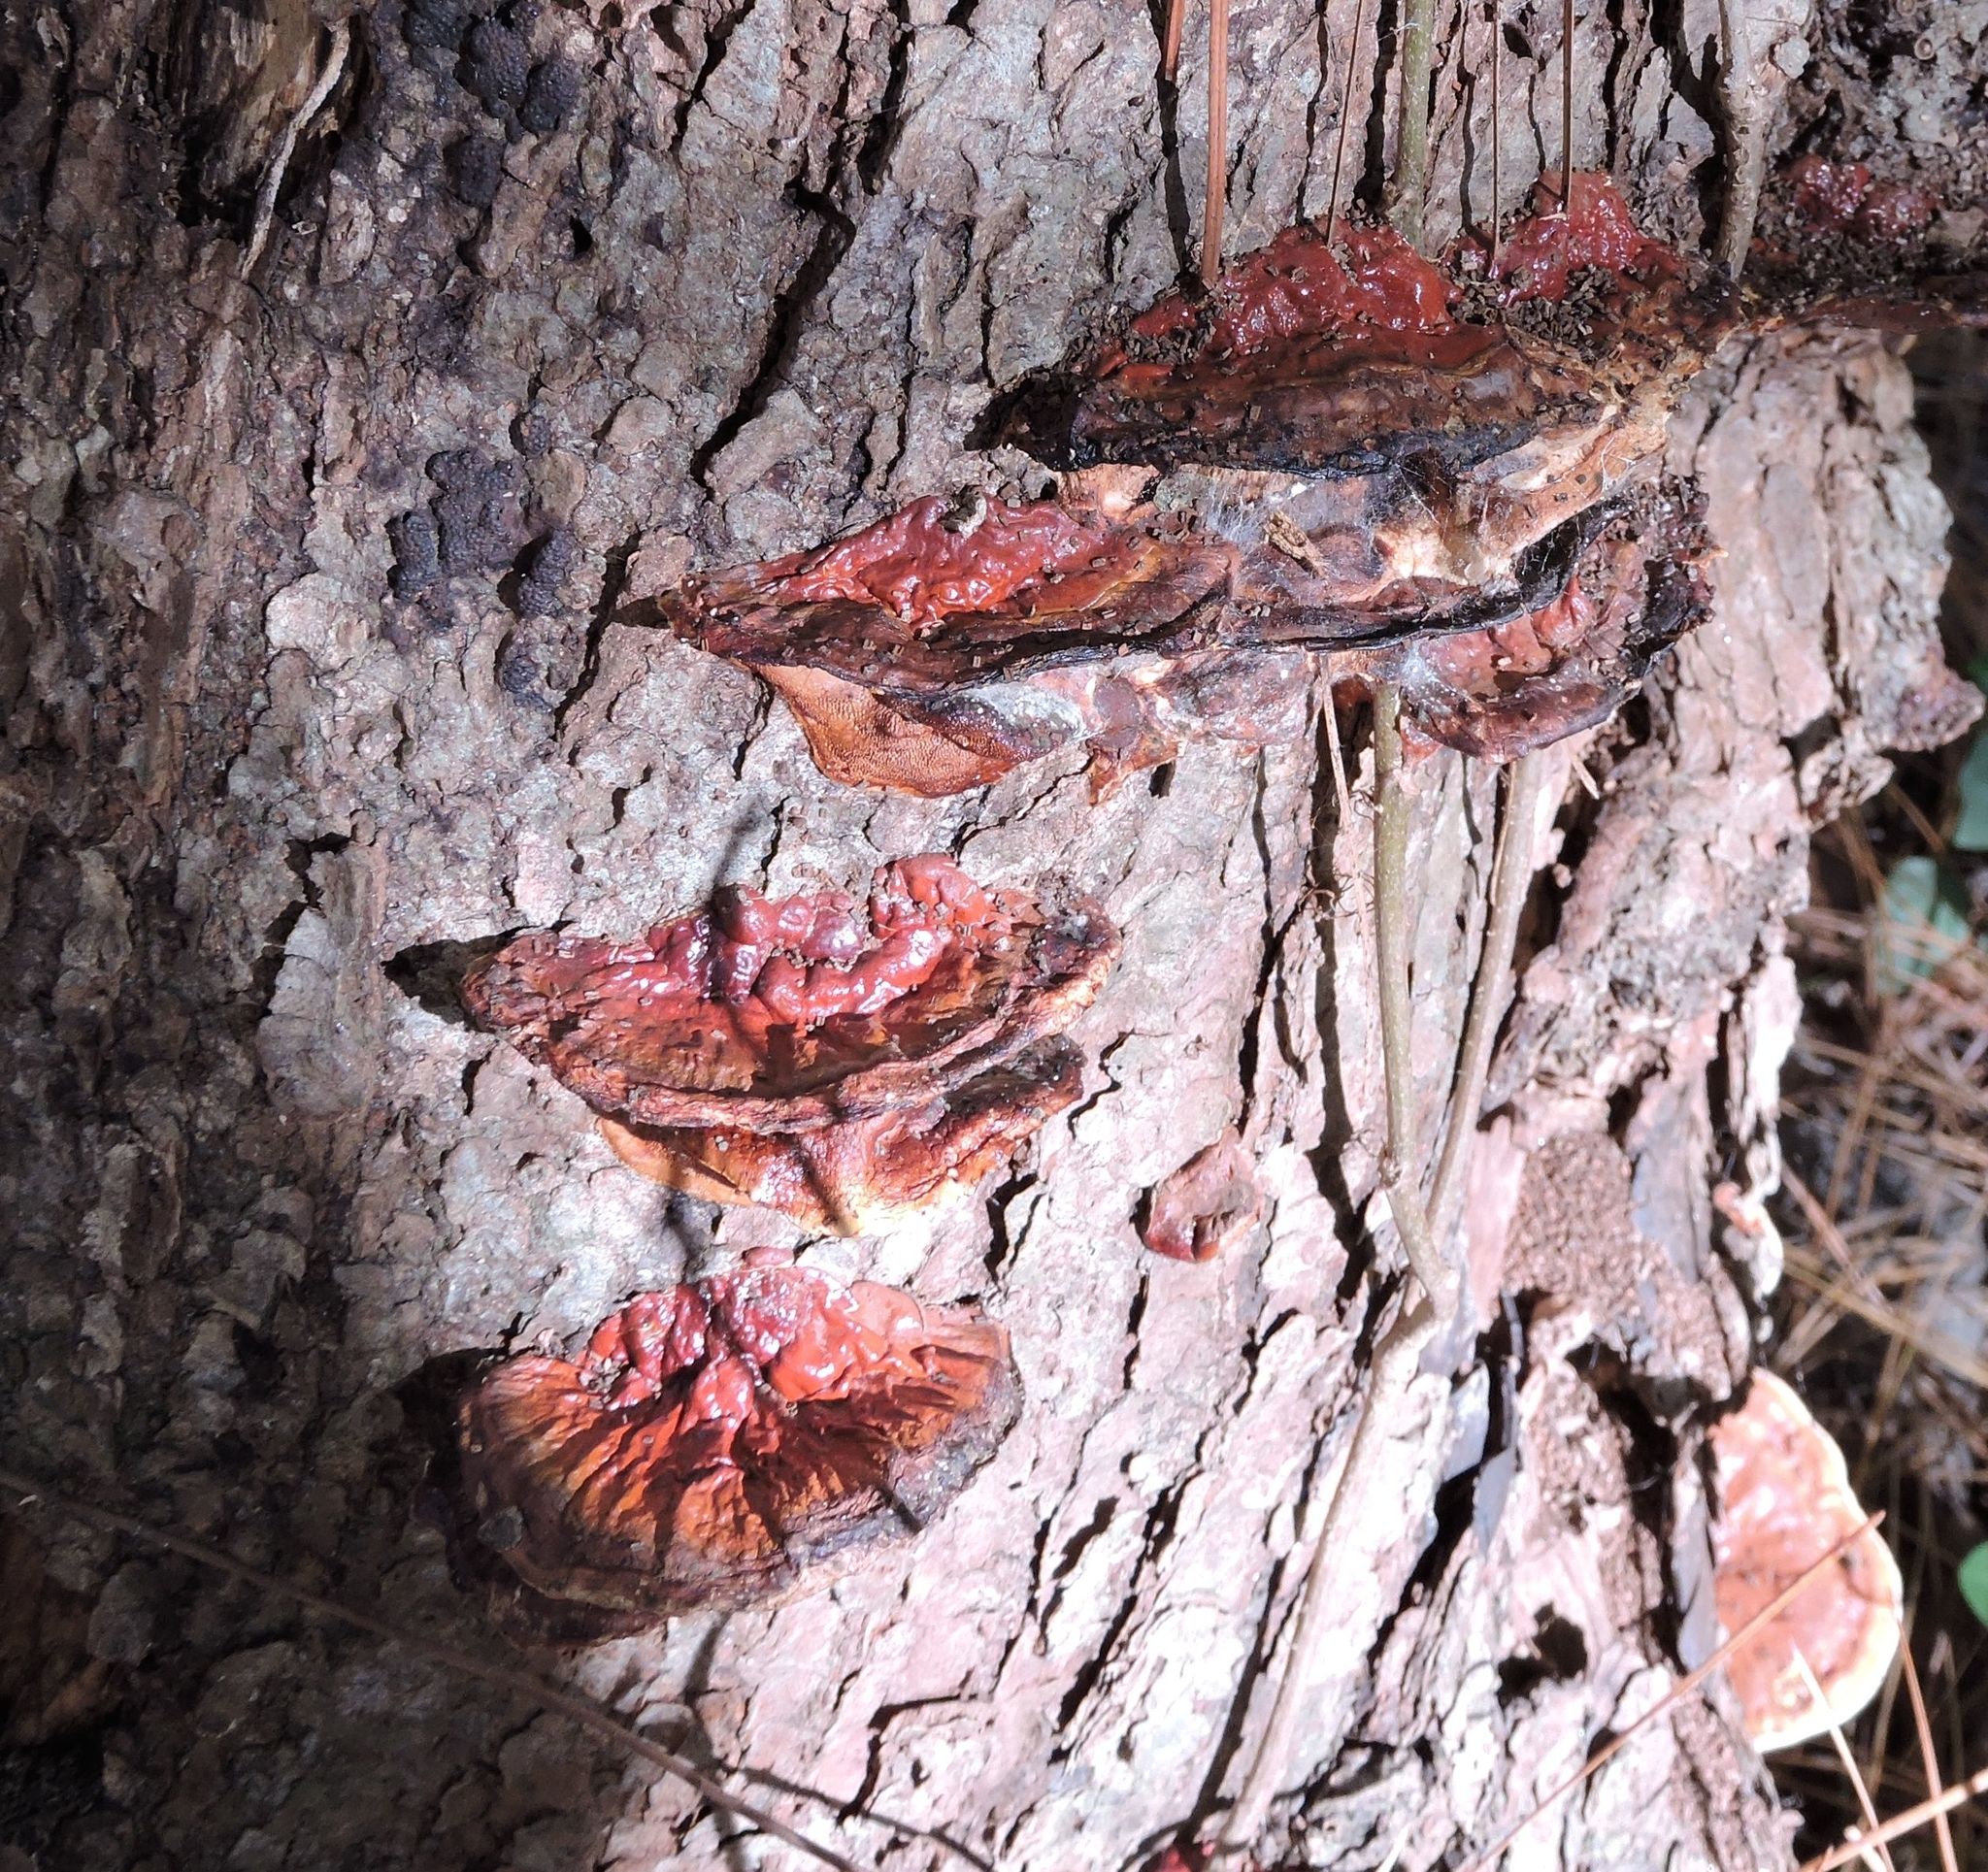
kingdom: Fungi
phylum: Basidiomycota
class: Agaricomycetes
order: Polyporales
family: Polyporaceae
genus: Ganoderma
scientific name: Ganoderma resinaceum
